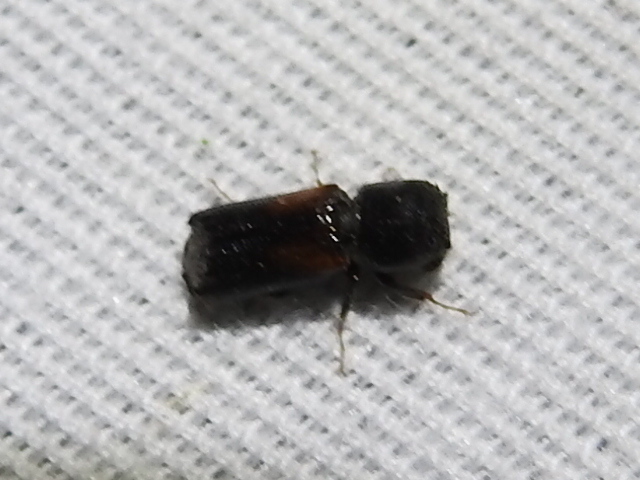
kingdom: Animalia
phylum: Arthropoda
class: Insecta
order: Coleoptera
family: Bostrichidae
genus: Xylobiops
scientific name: Xylobiops basilaris
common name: Red-shouldered bostrichid
